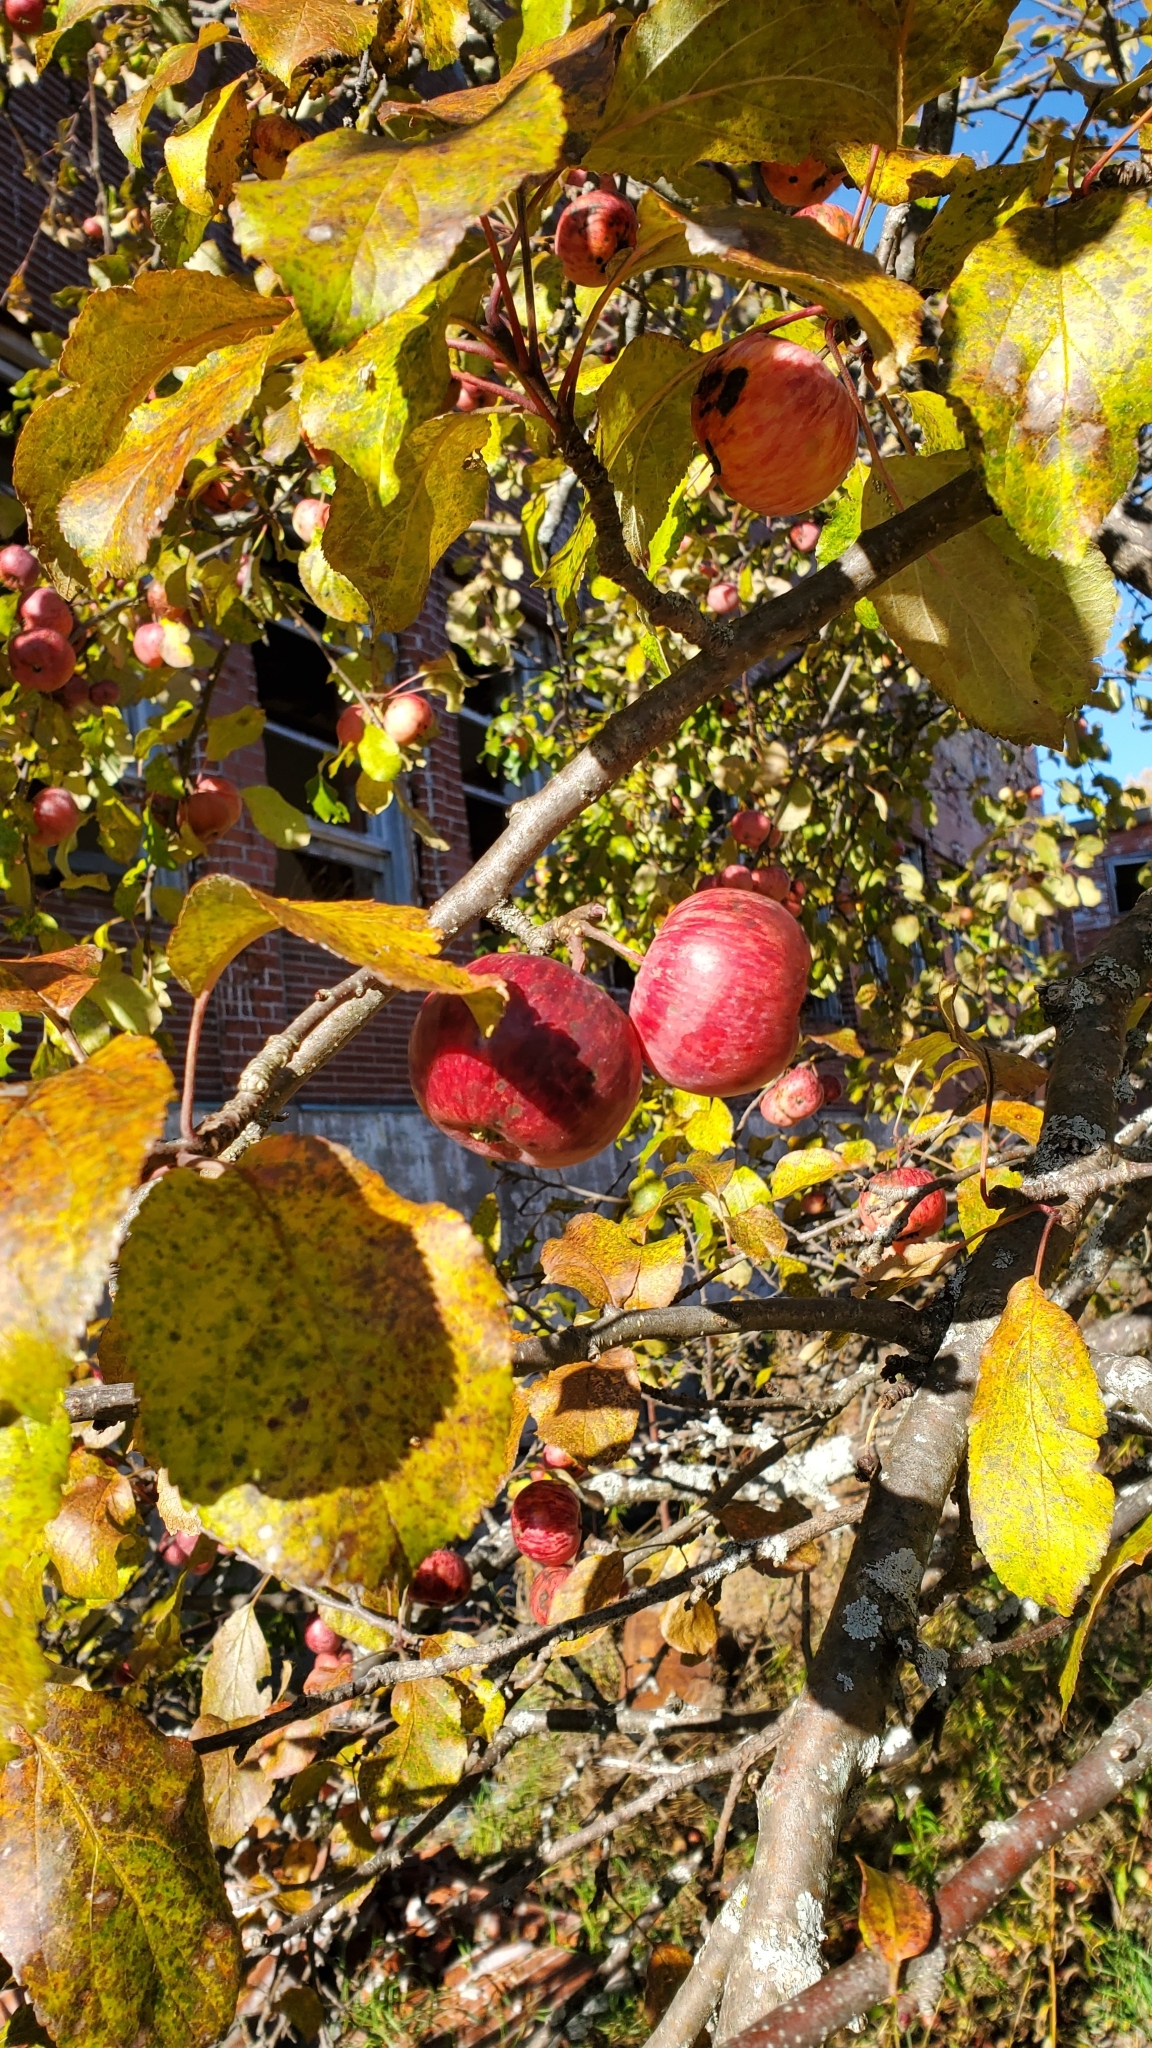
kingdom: Plantae
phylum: Tracheophyta
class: Magnoliopsida
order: Rosales
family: Rosaceae
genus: Malus
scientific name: Malus domestica
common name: Apple
